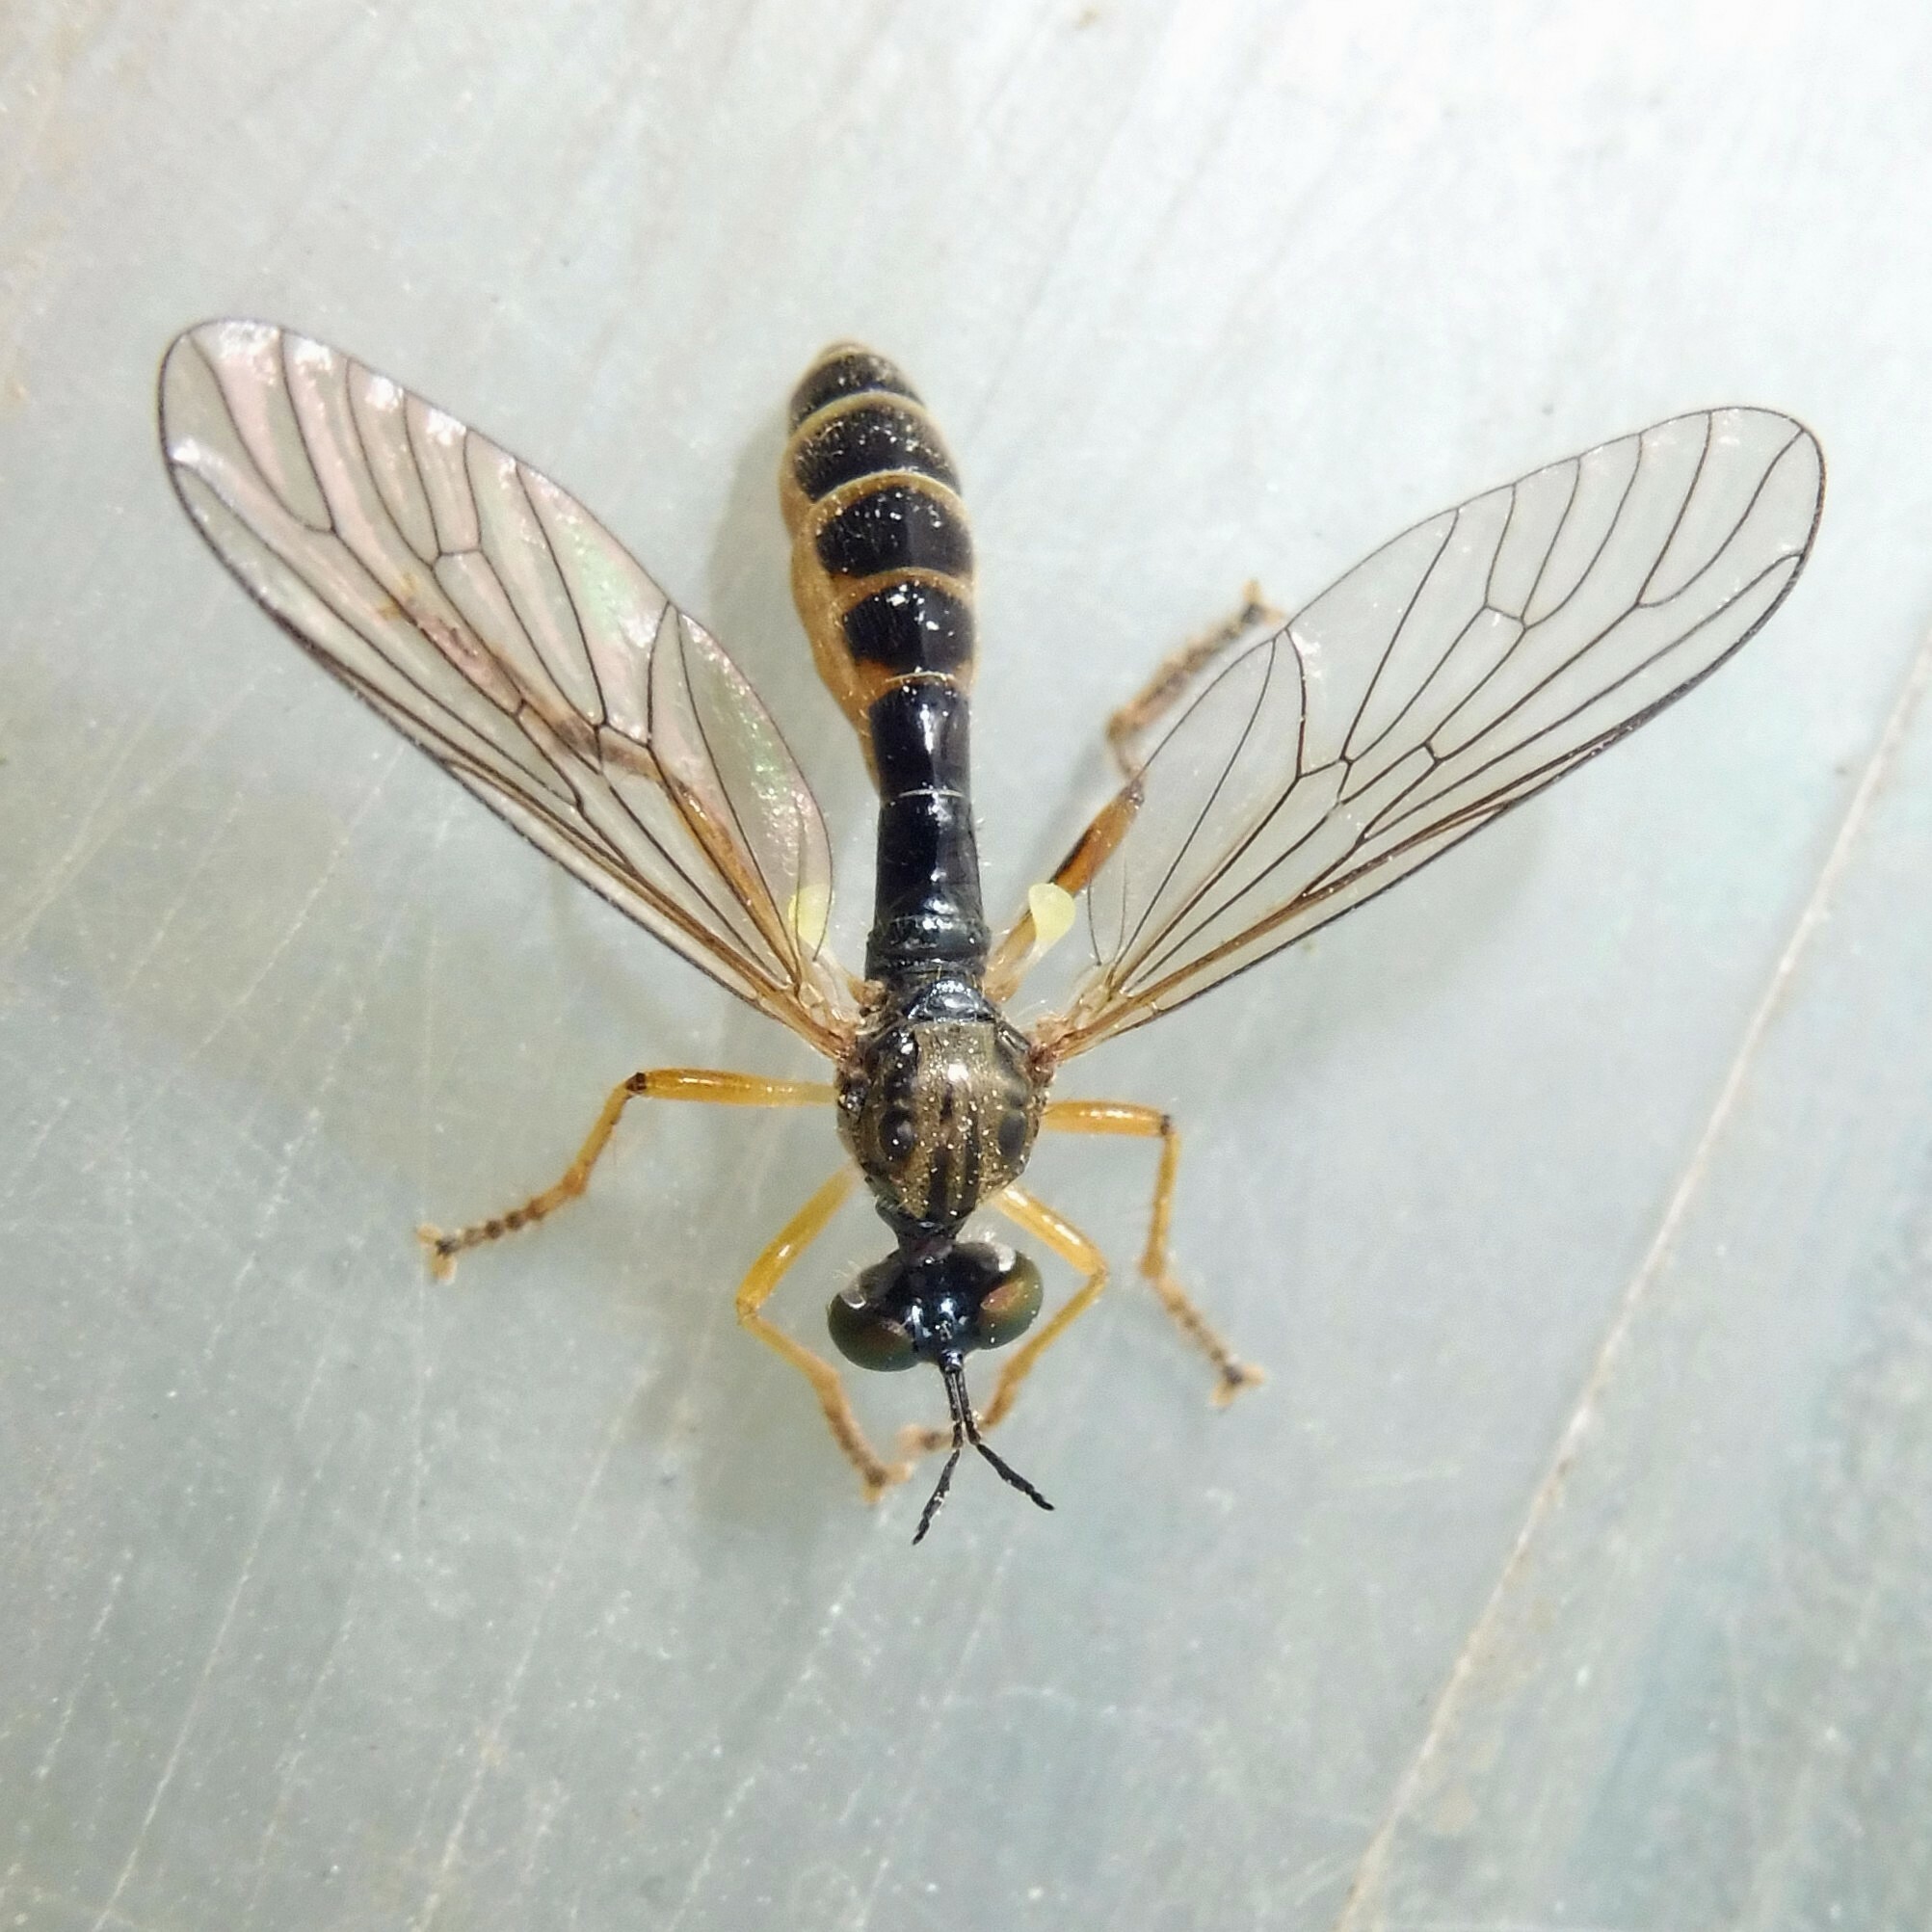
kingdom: Animalia
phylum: Arthropoda
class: Insecta
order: Diptera
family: Asilidae
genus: Dioctria
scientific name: Dioctria linearis
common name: Small yellow-legged robberfly
